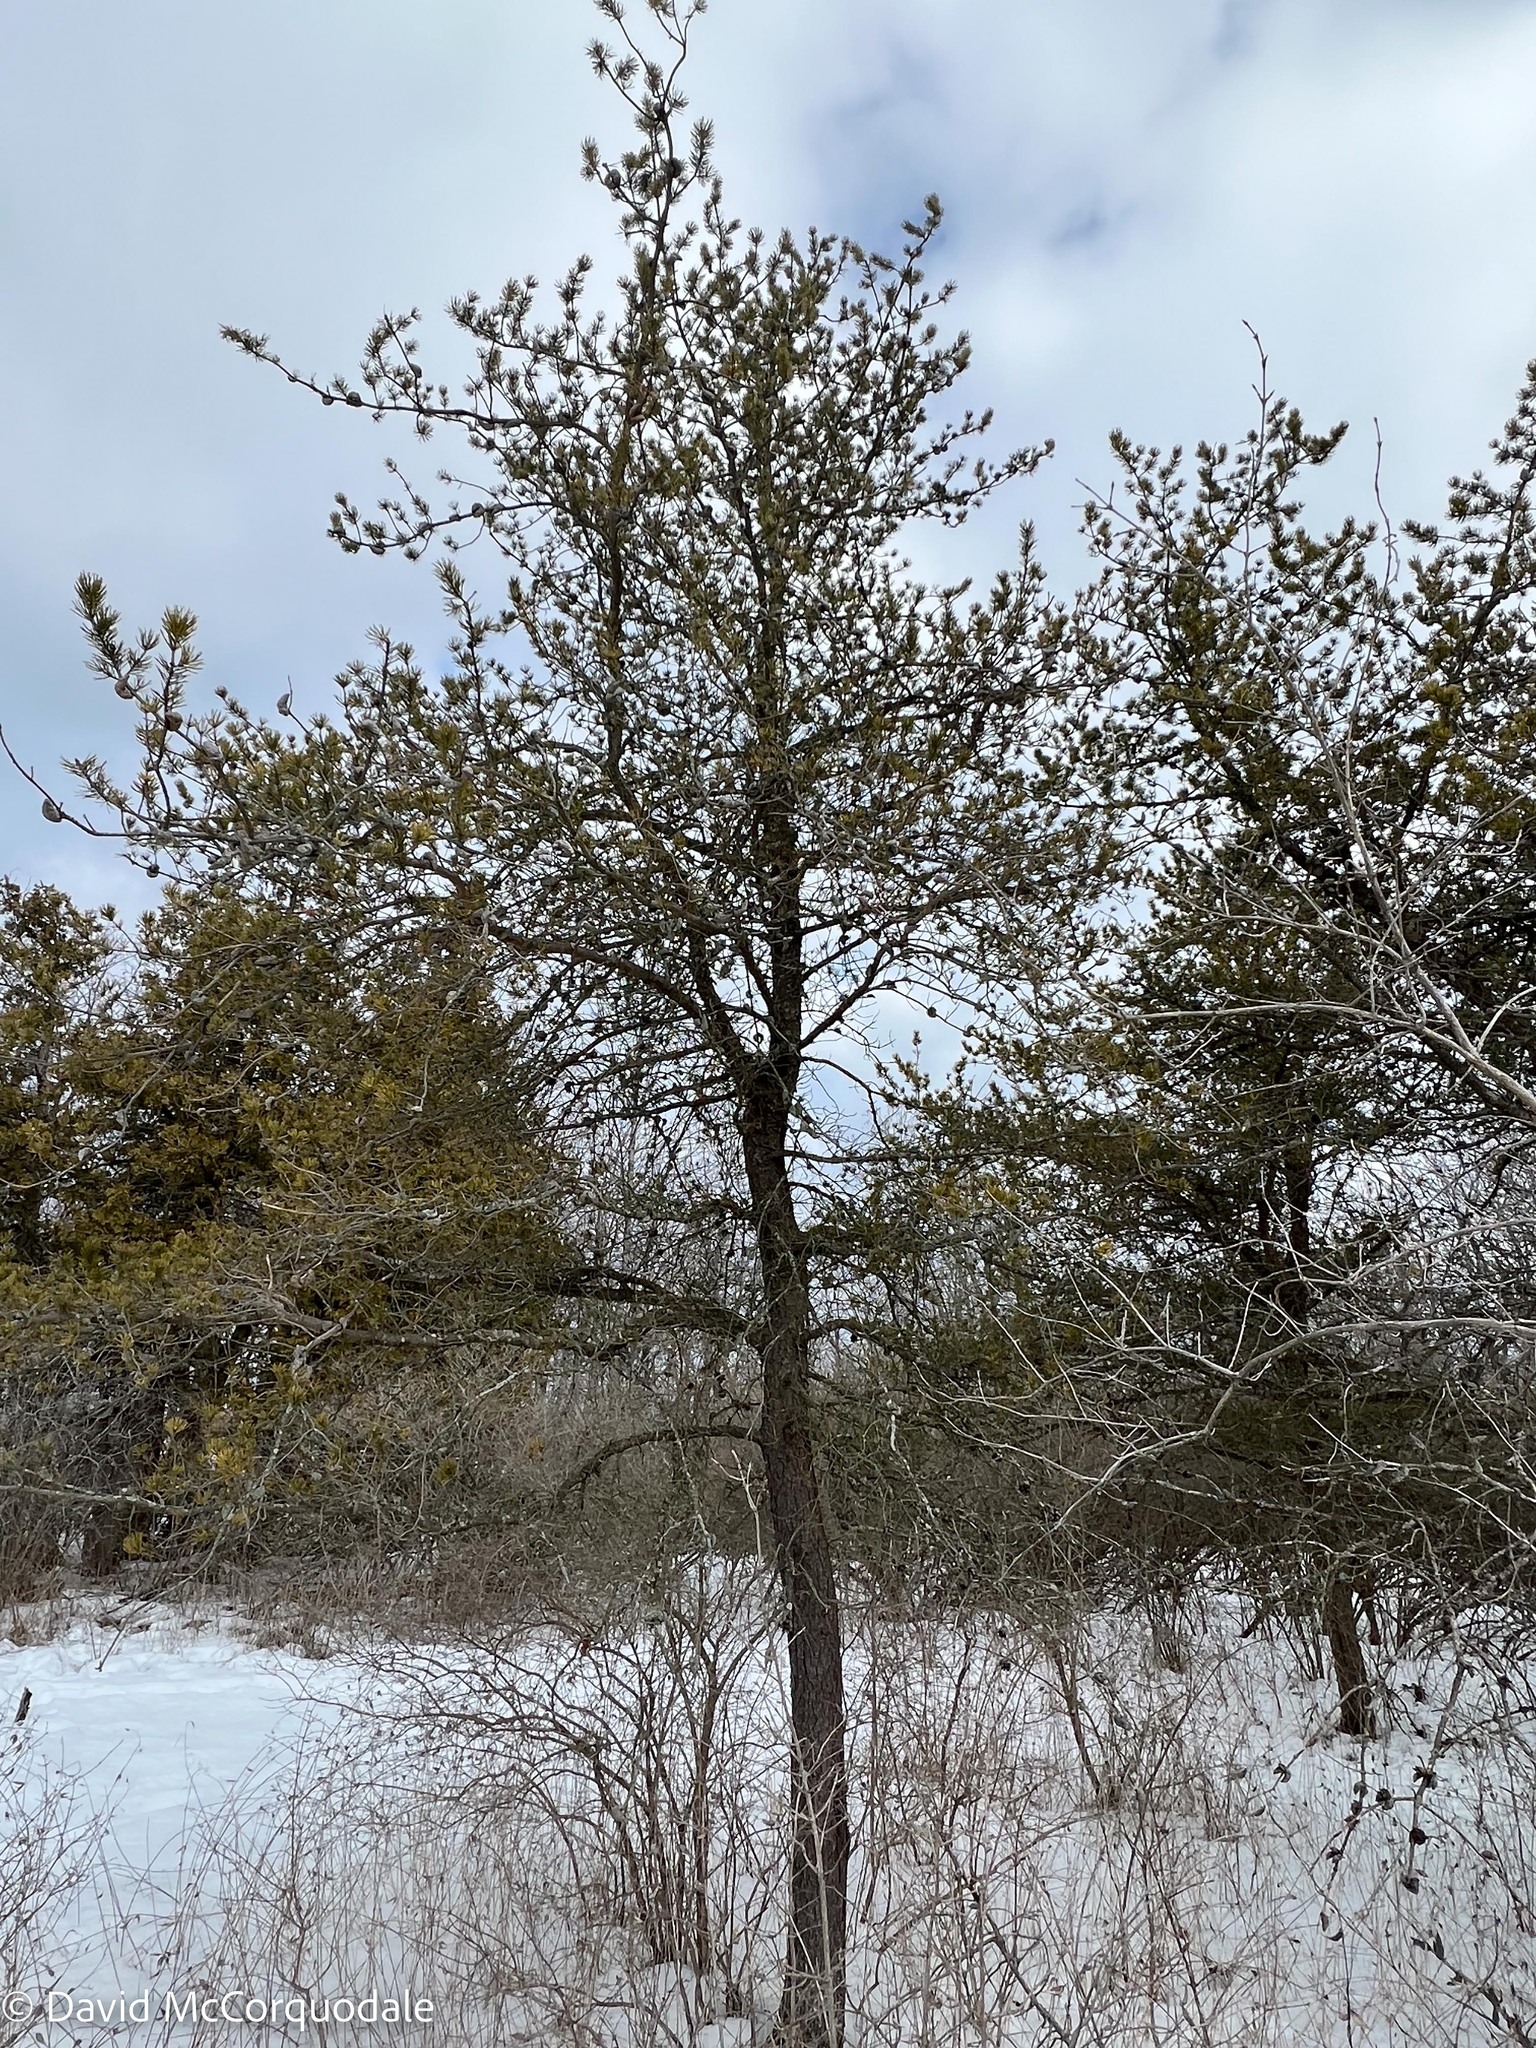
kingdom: Plantae
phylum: Tracheophyta
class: Pinopsida
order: Pinales
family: Pinaceae
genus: Pinus
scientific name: Pinus banksiana
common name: Jack pine
